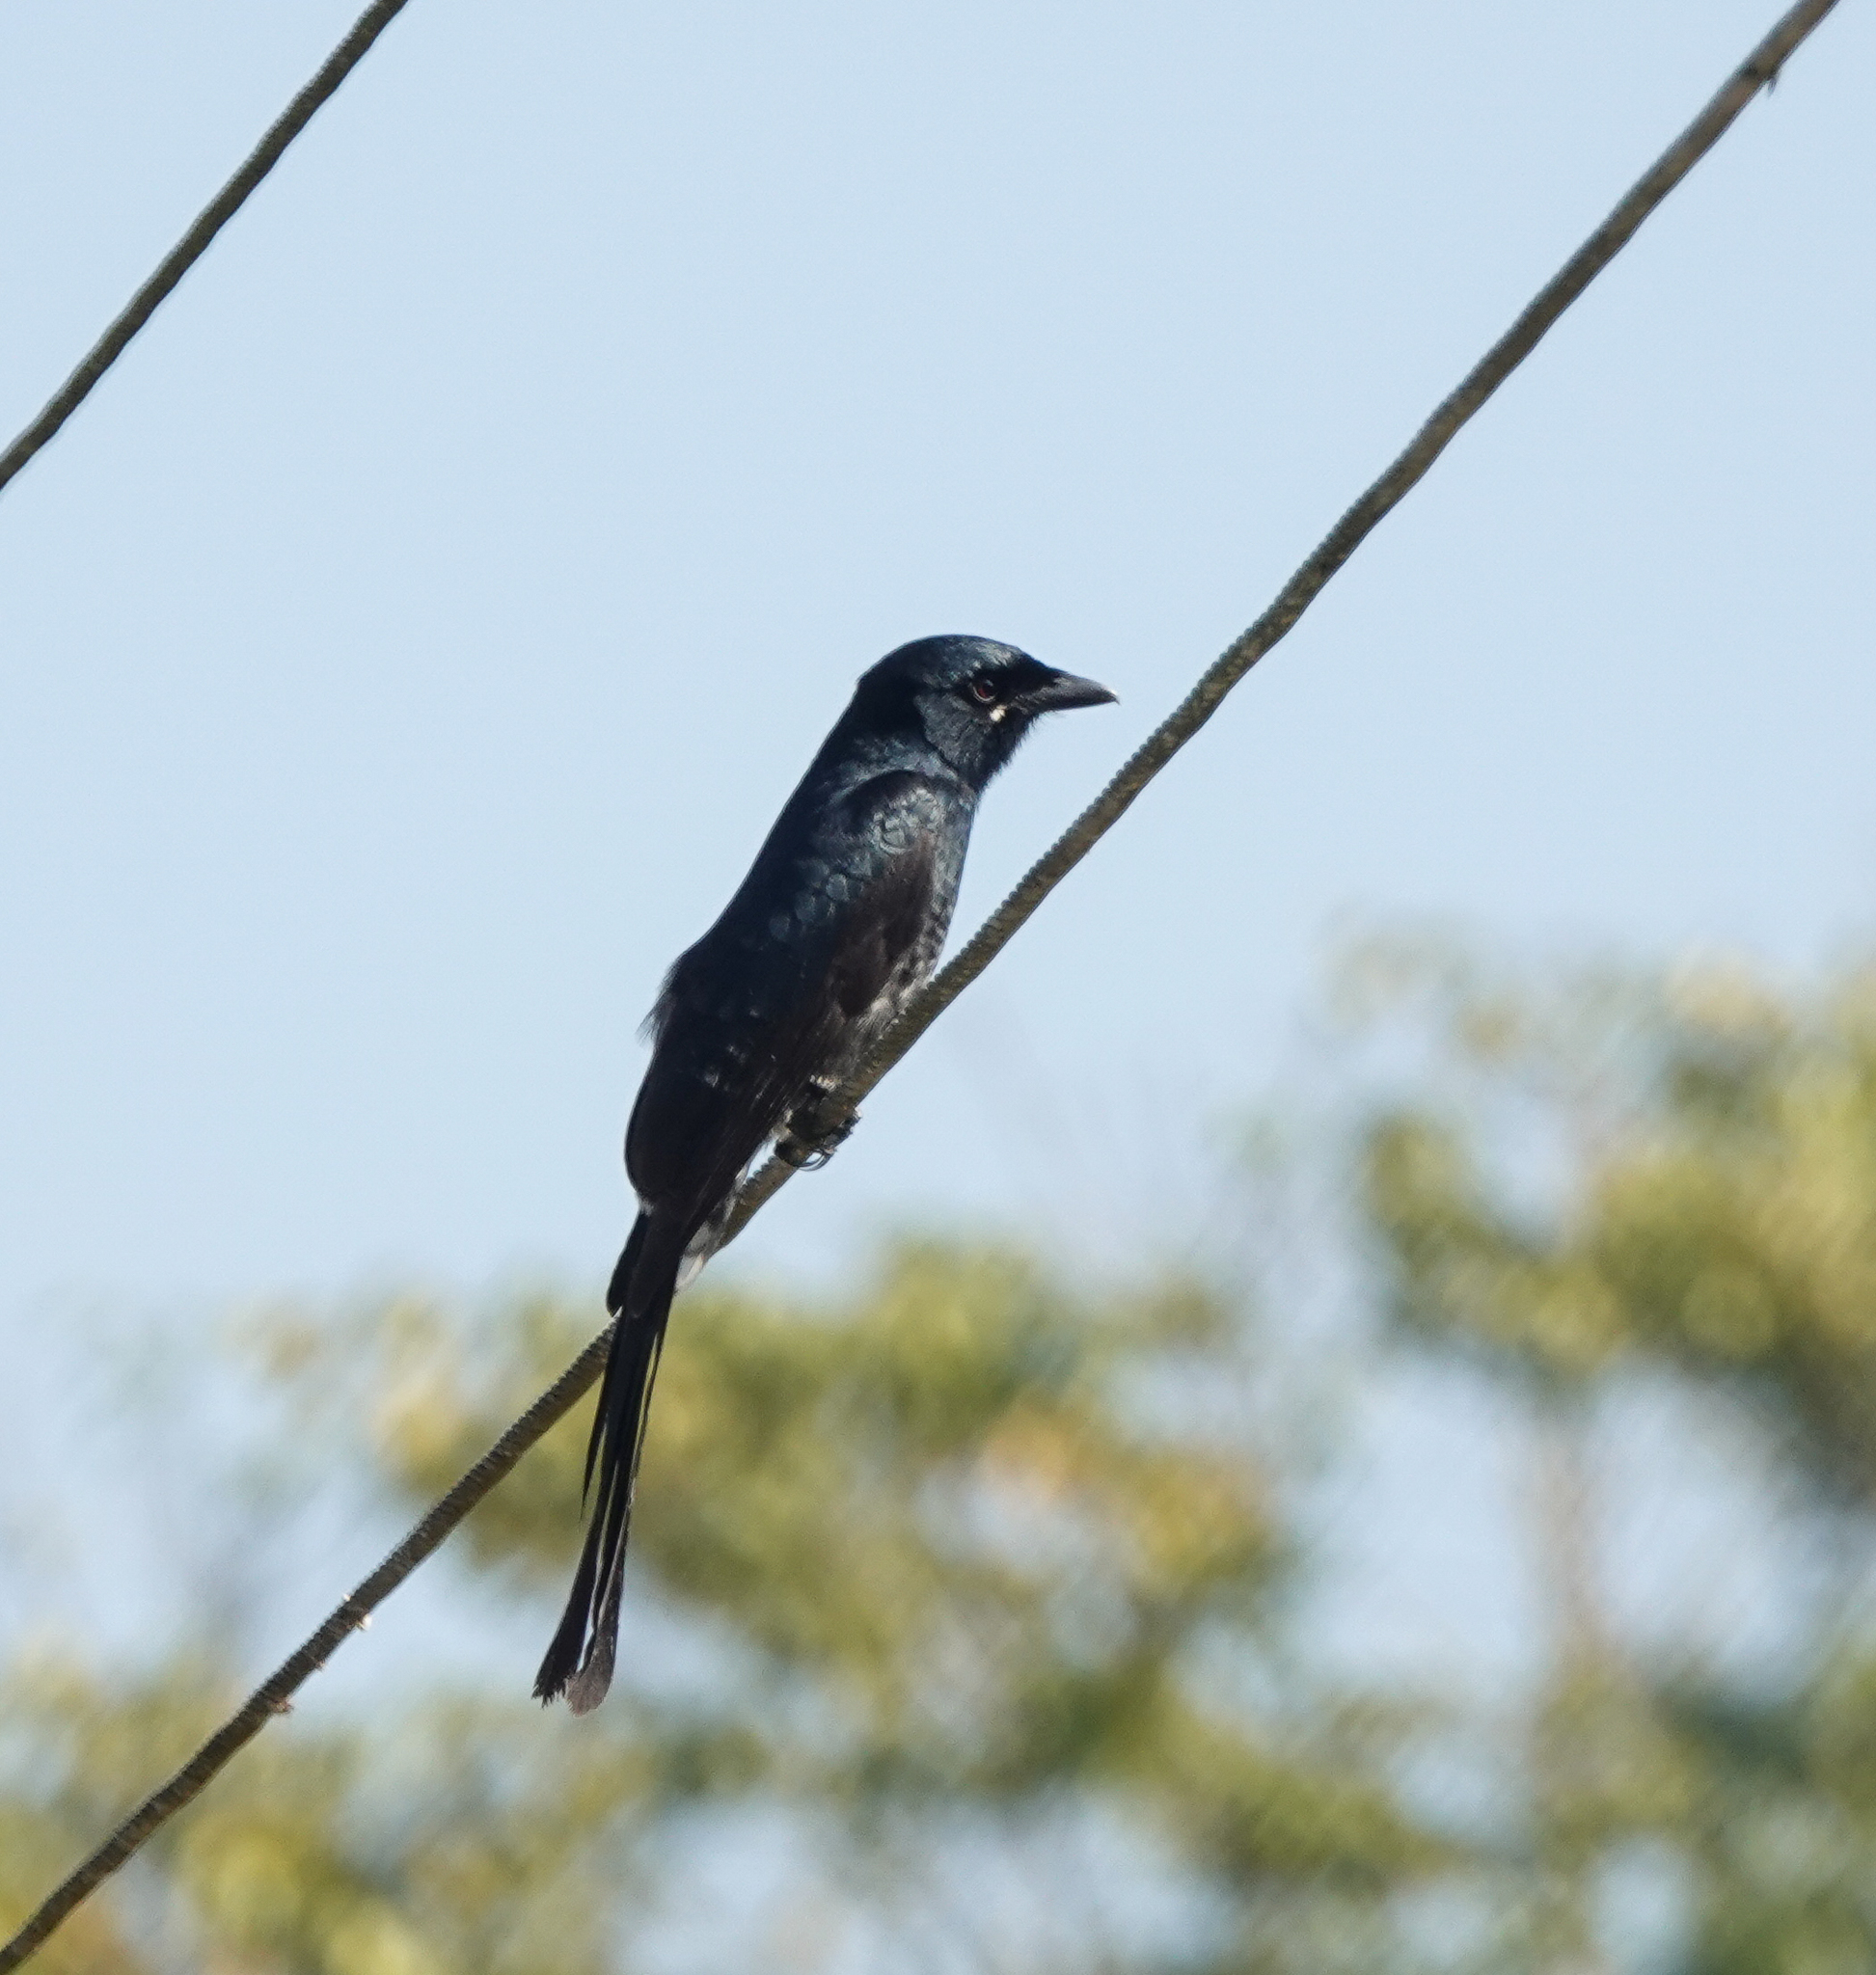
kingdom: Animalia
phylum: Chordata
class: Aves
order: Passeriformes
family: Dicruridae
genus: Dicrurus
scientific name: Dicrurus macrocercus
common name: Black drongo
